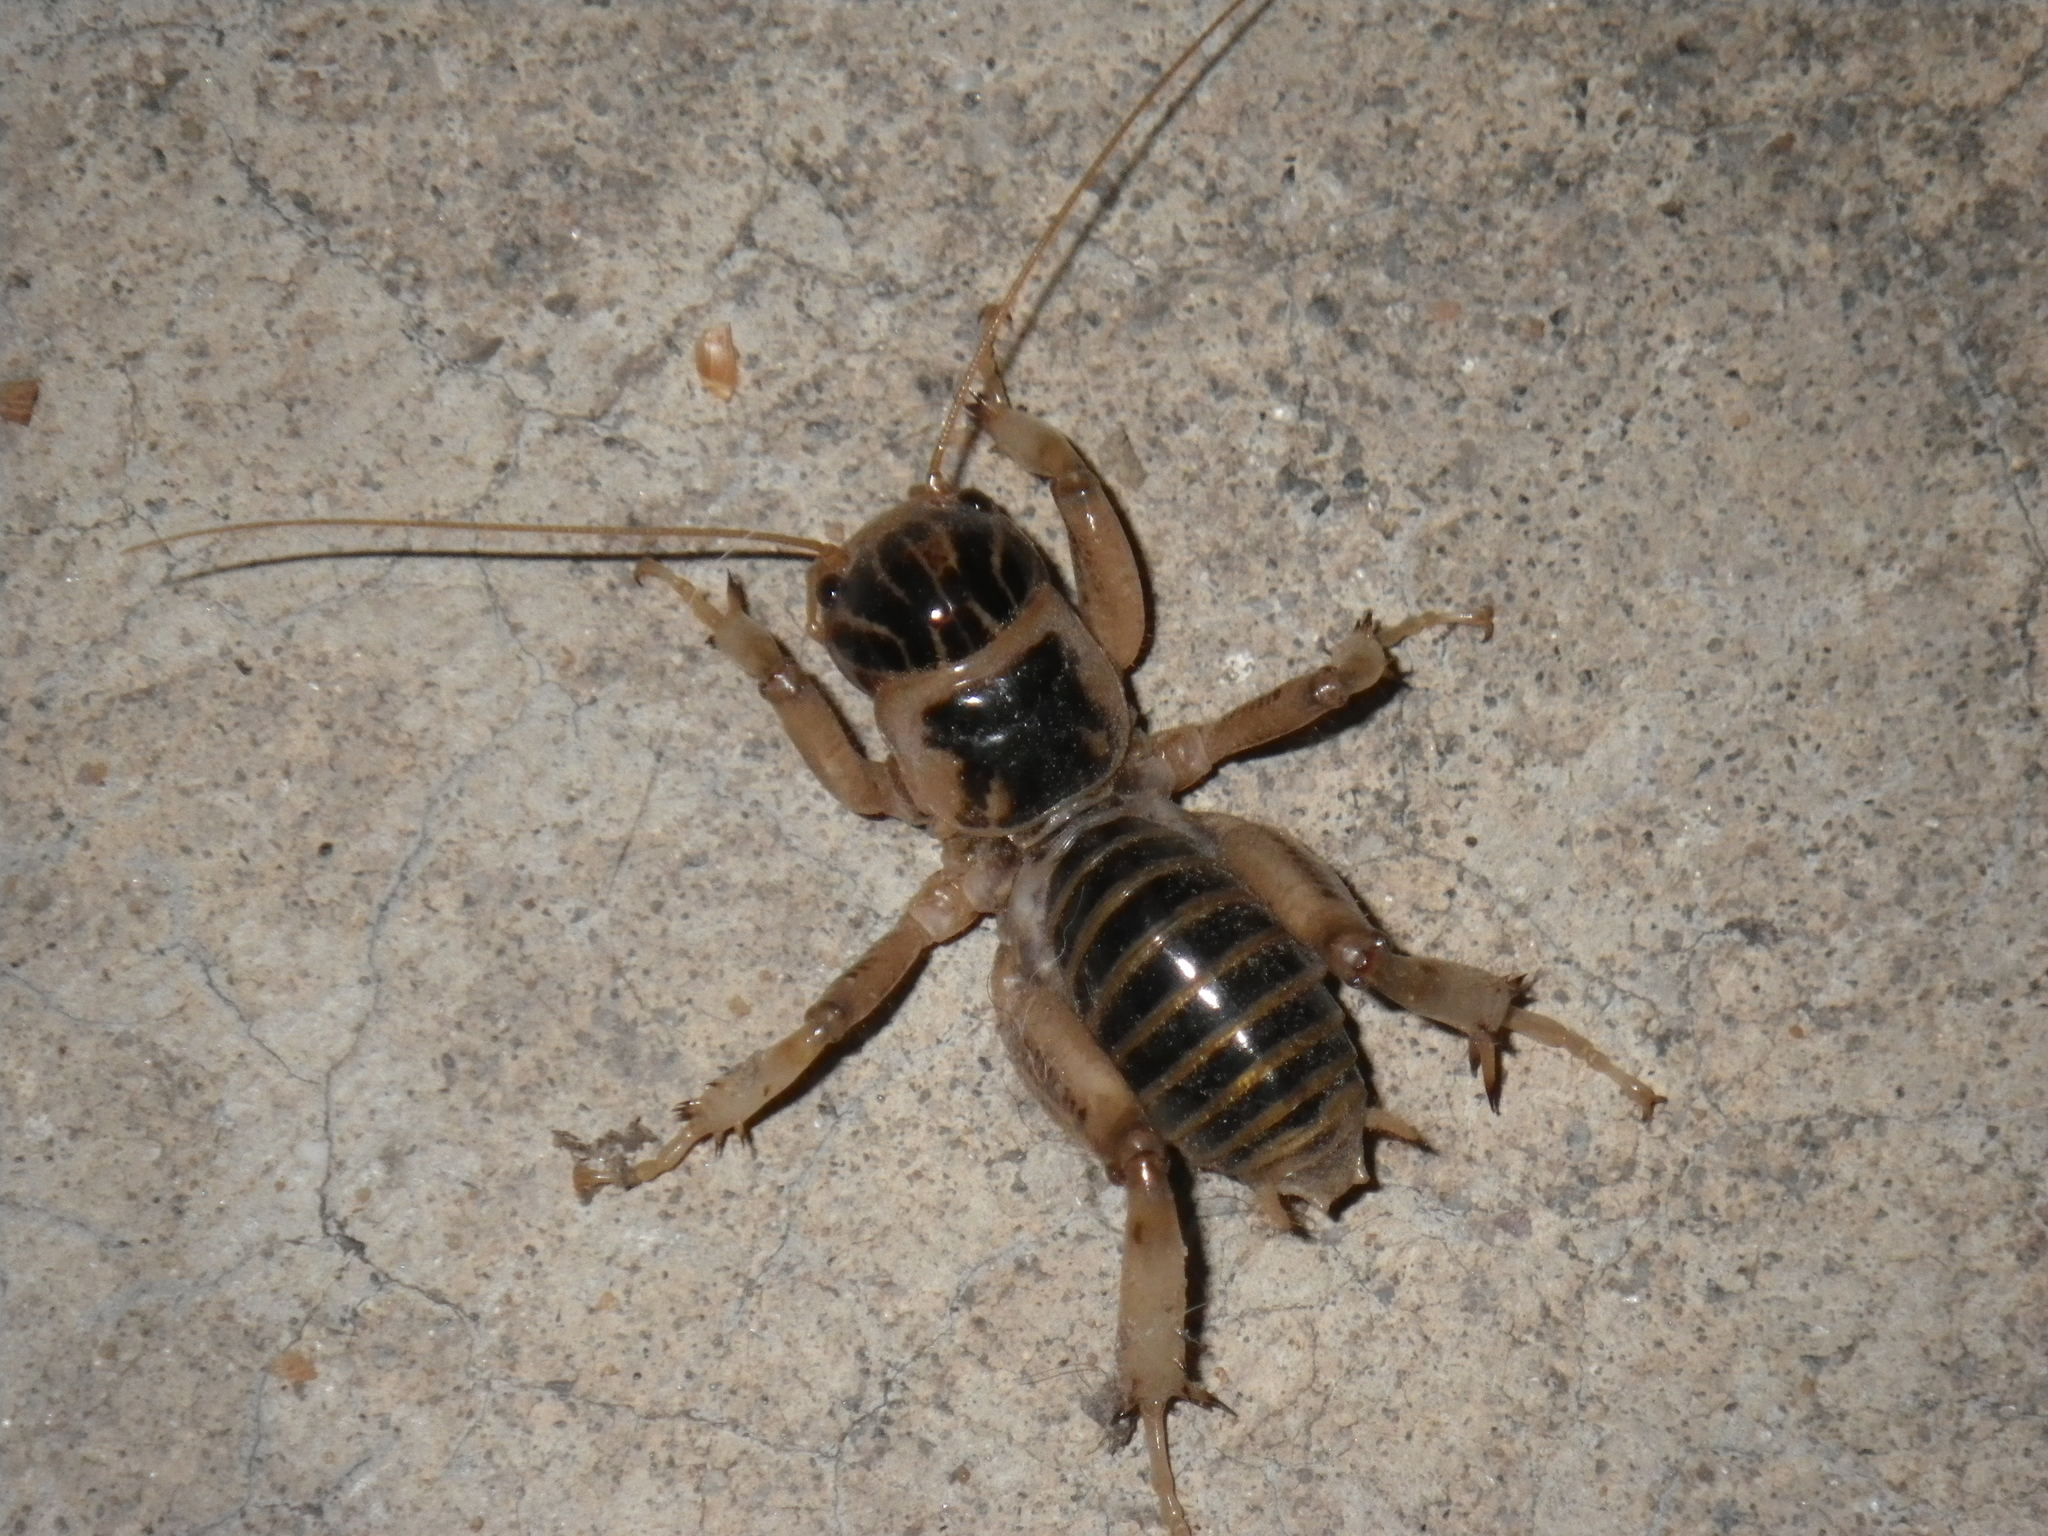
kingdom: Animalia
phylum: Arthropoda
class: Insecta
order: Orthoptera
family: Stenopelmatidae
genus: Ammopelmatus
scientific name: Ammopelmatus pictus
